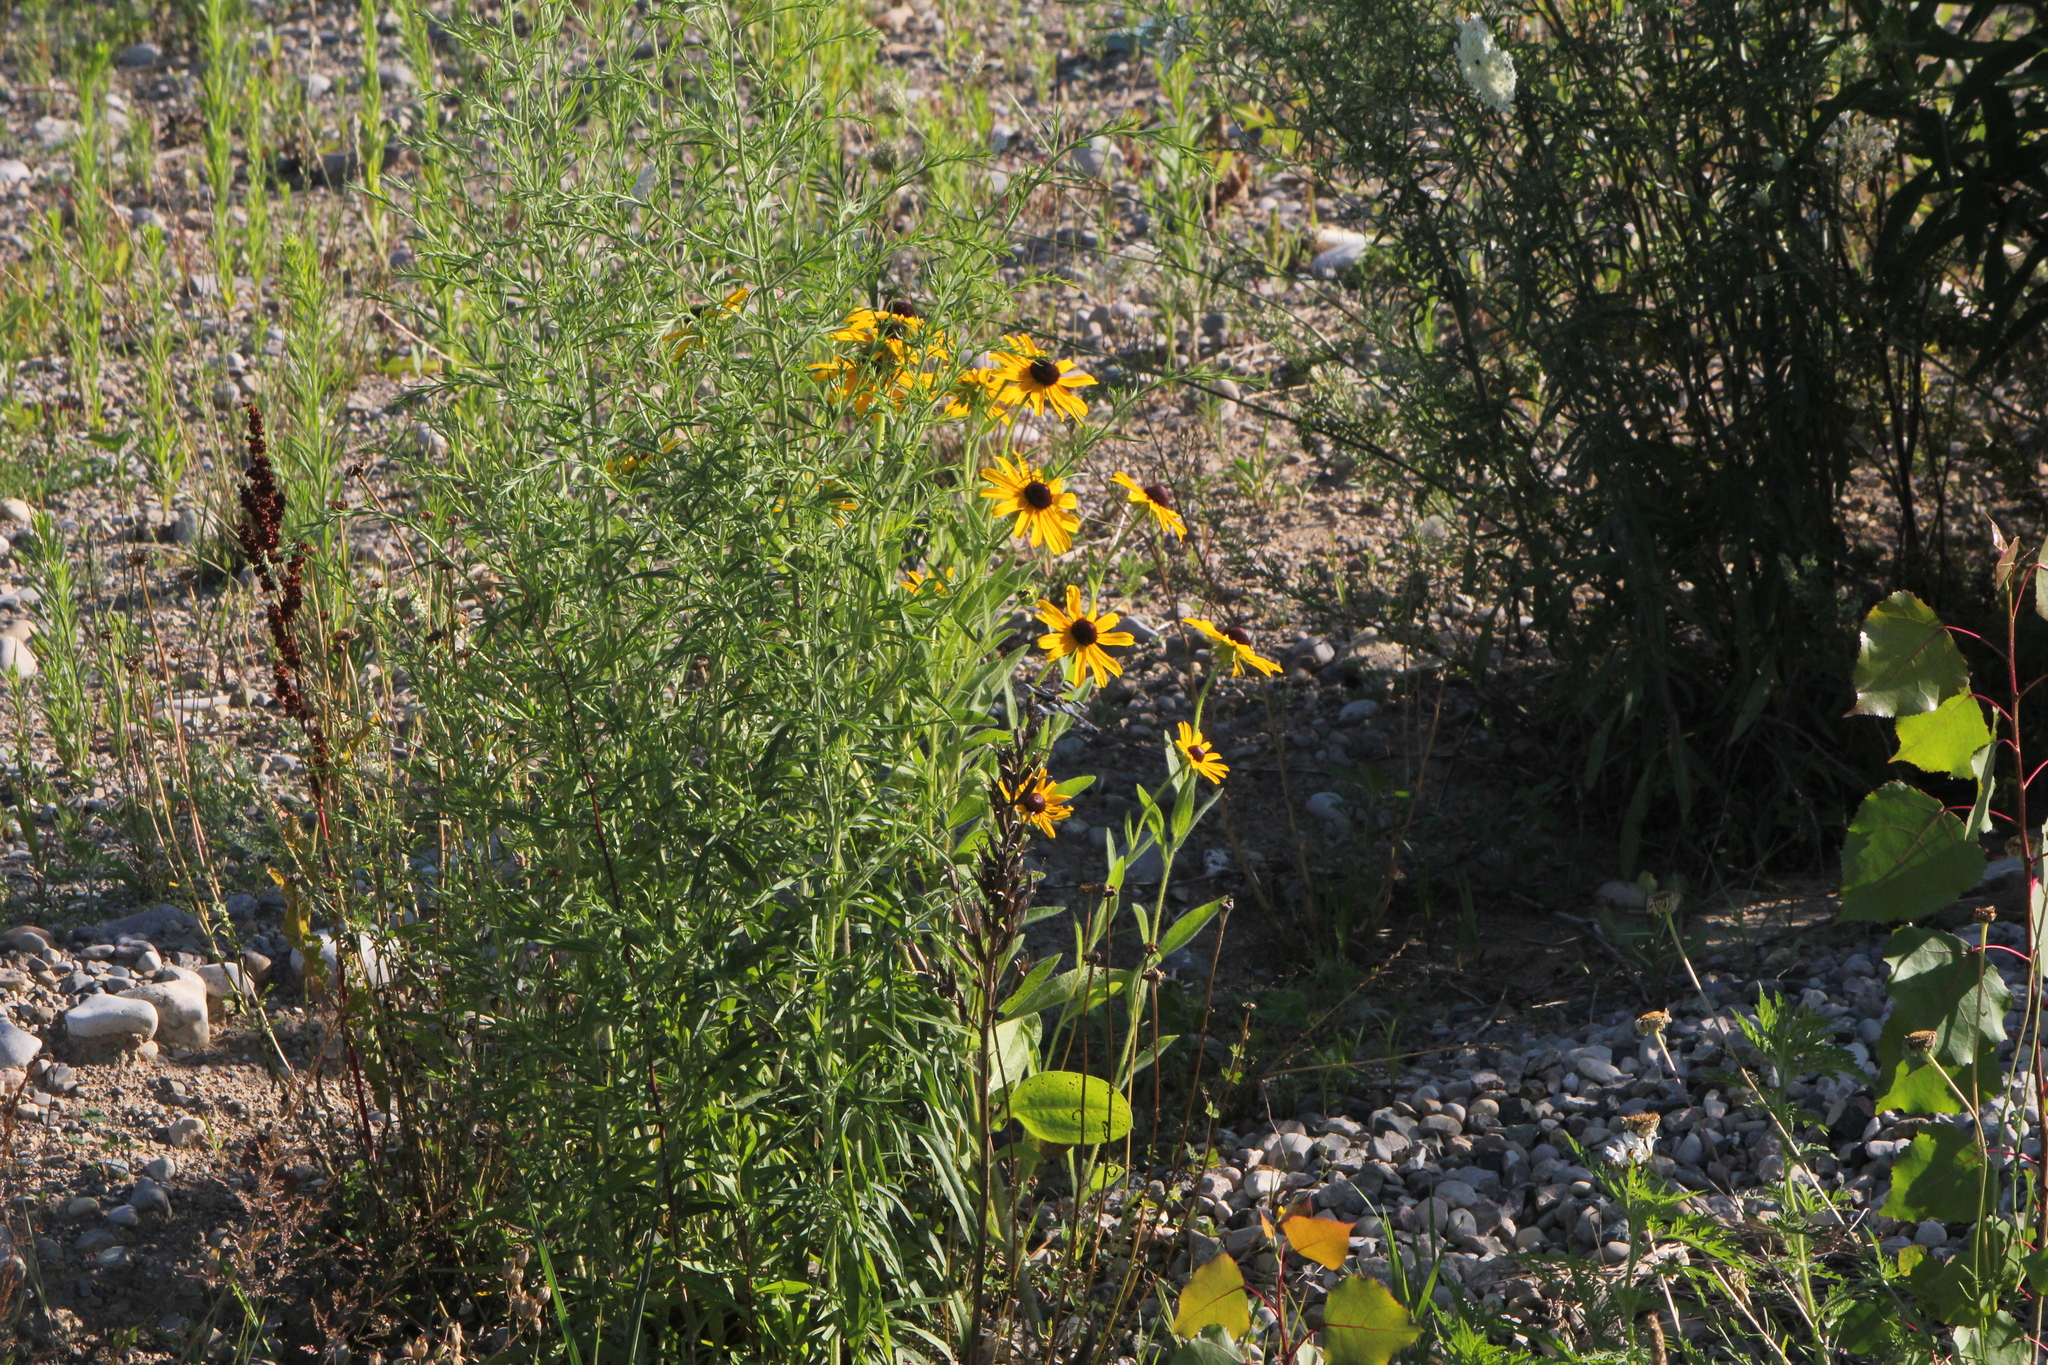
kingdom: Plantae
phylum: Tracheophyta
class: Magnoliopsida
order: Asterales
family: Asteraceae
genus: Rudbeckia
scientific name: Rudbeckia hirta
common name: Black-eyed-susan
